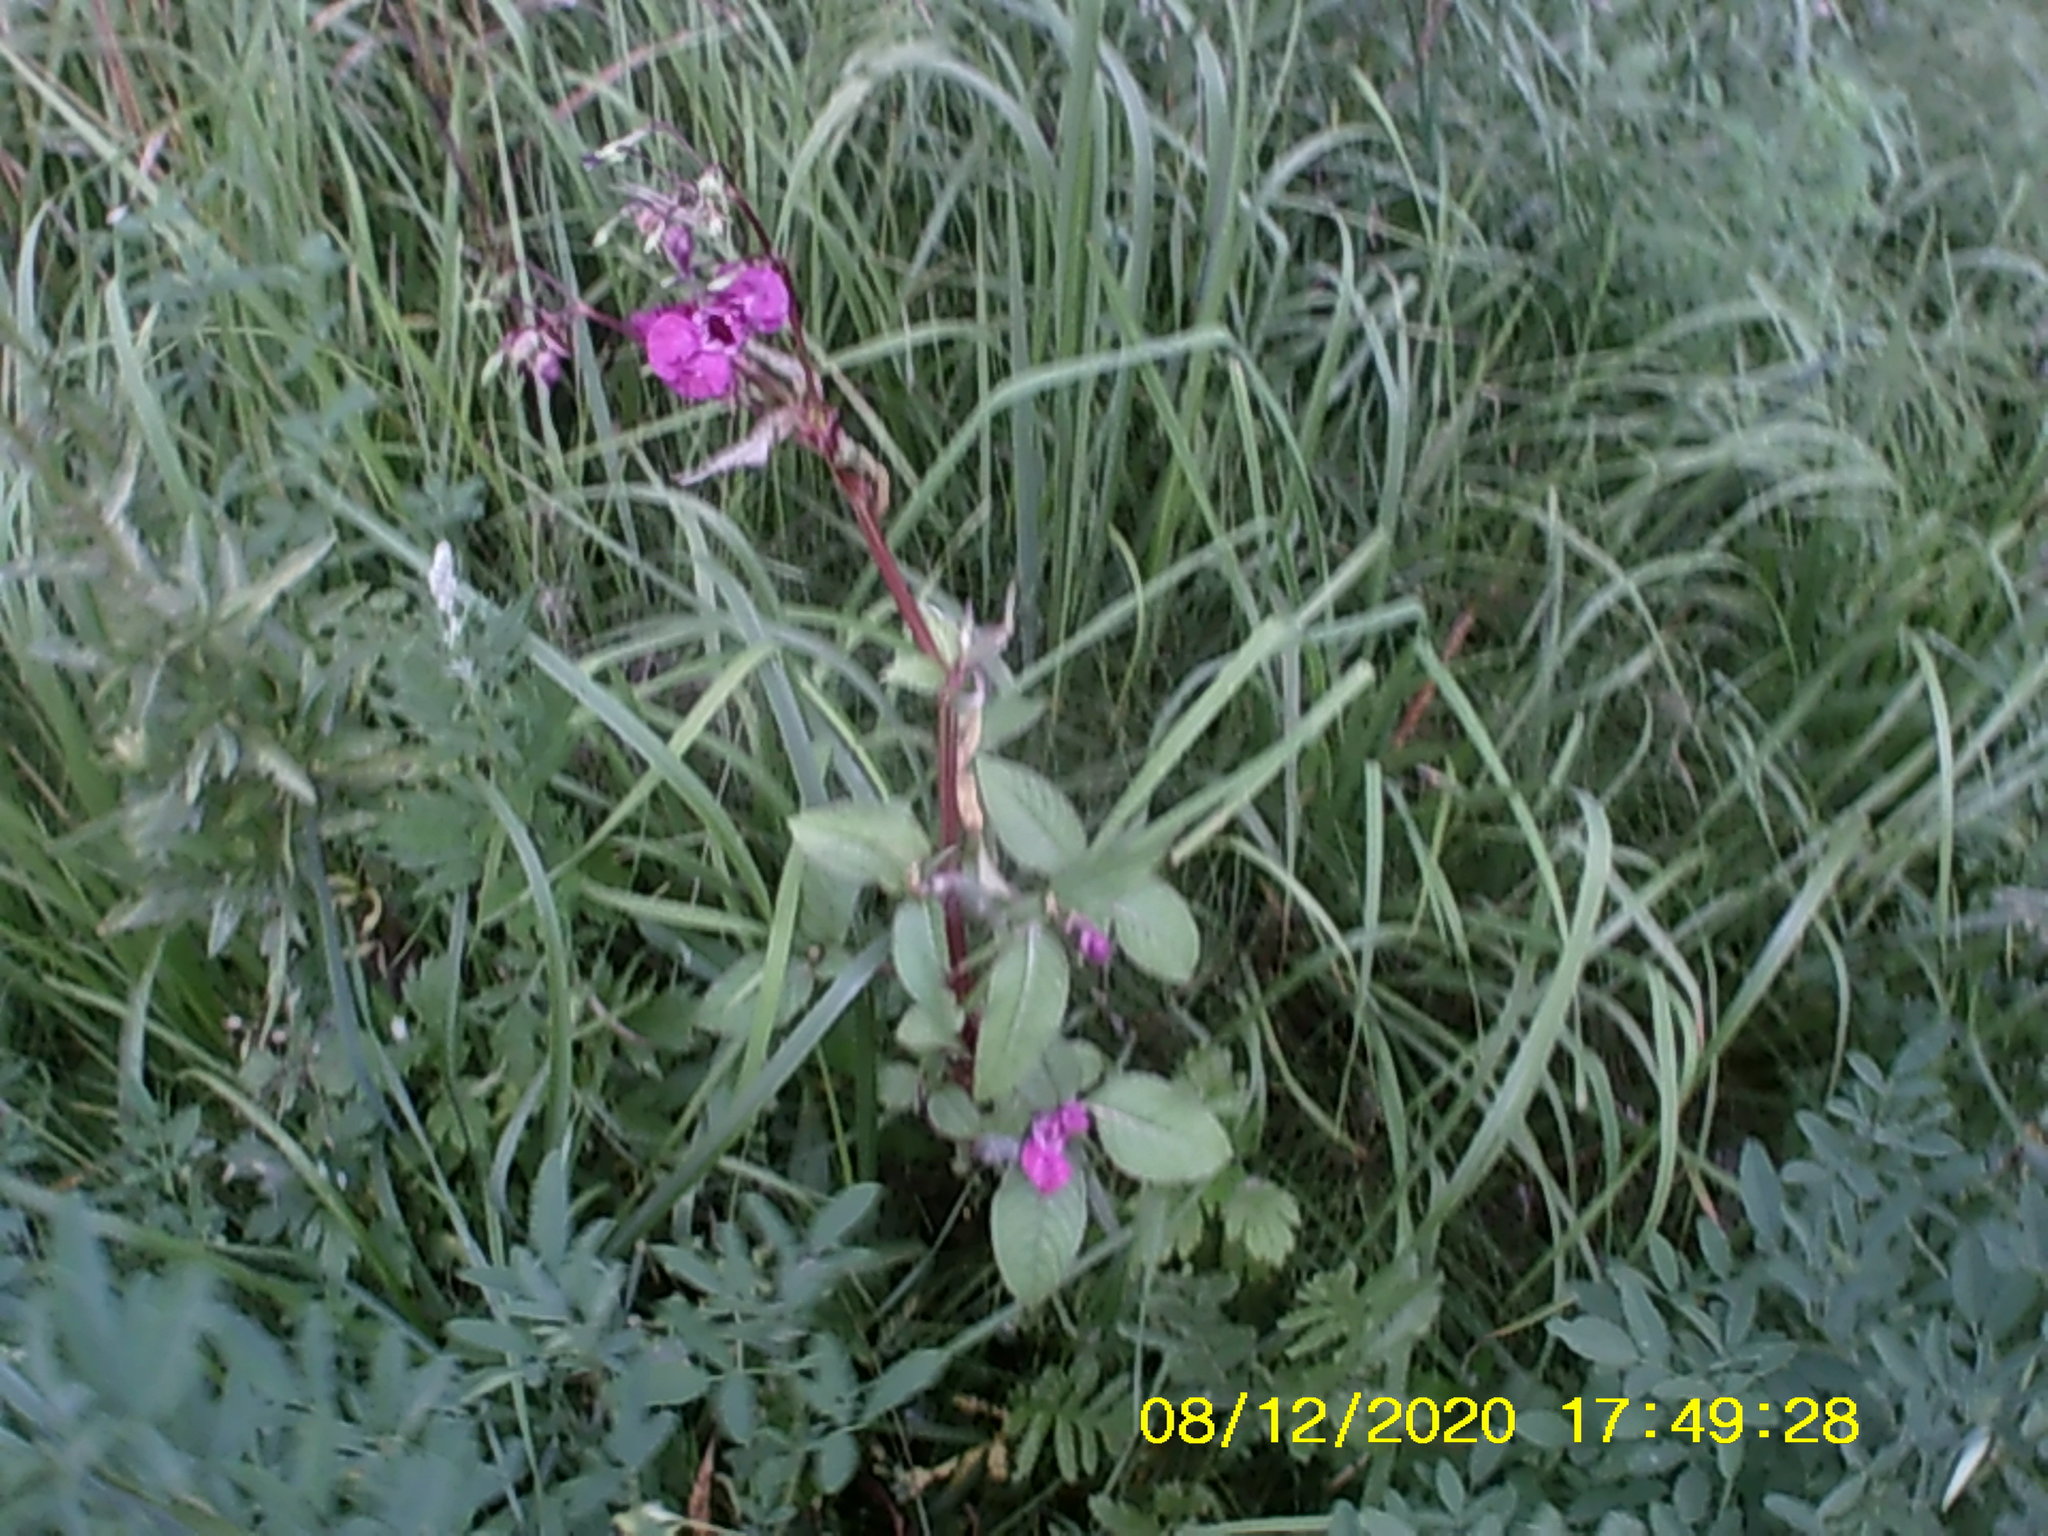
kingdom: Plantae
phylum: Tracheophyta
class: Magnoliopsida
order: Ericales
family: Balsaminaceae
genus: Impatiens
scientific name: Impatiens glandulifera
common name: Himalayan balsam
